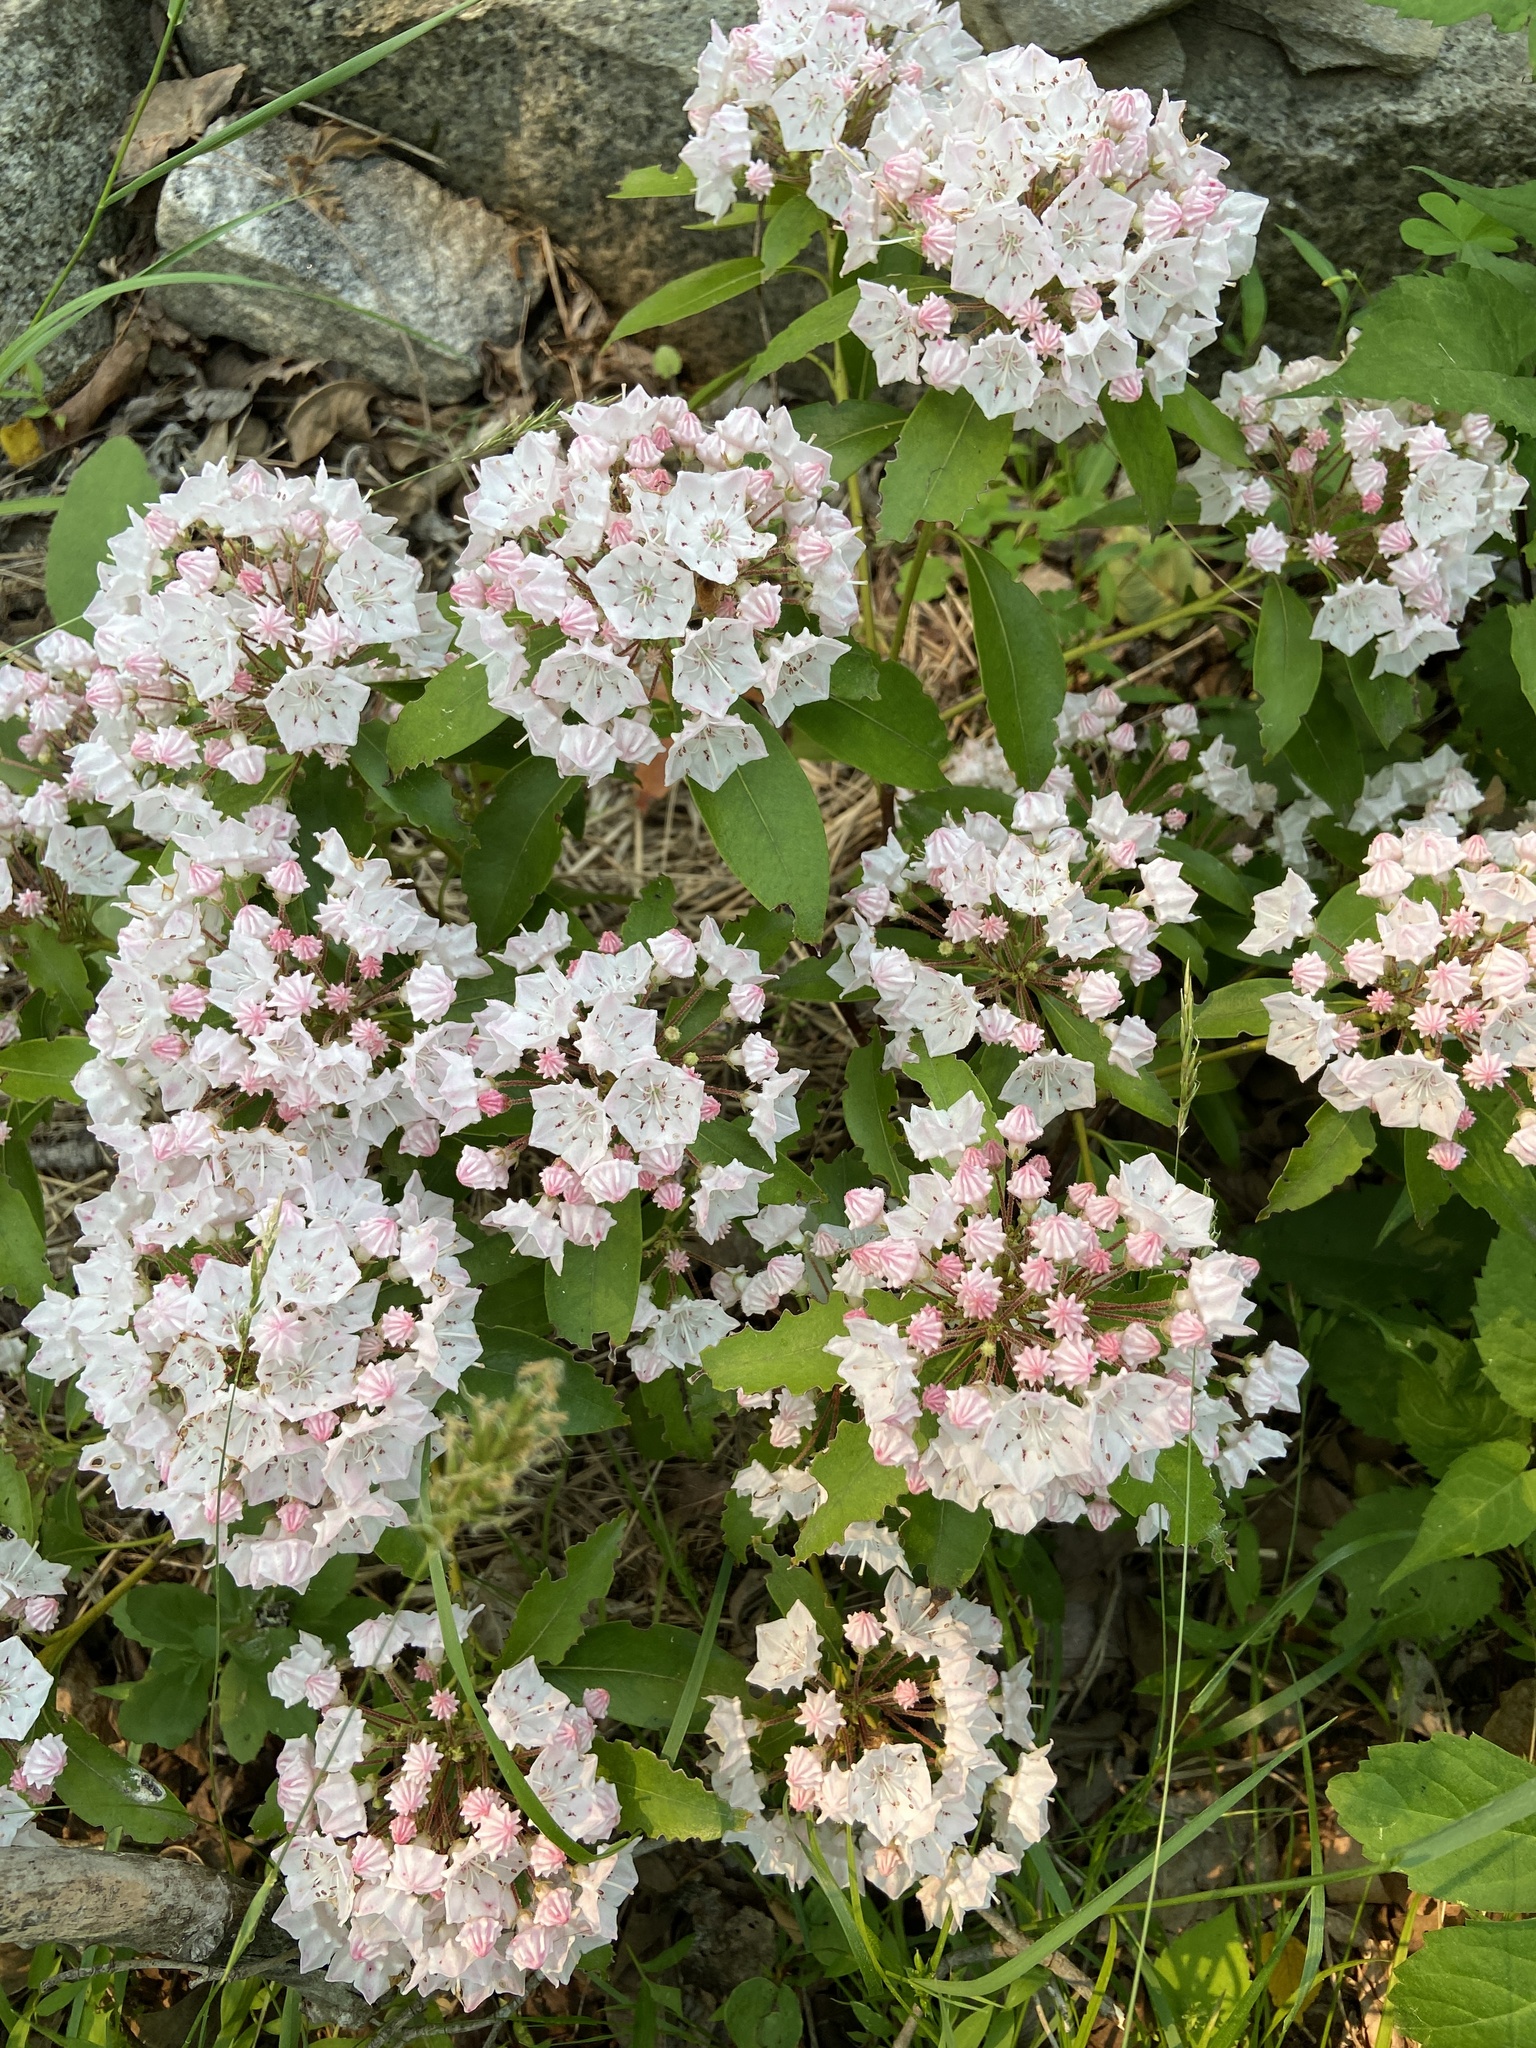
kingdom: Plantae
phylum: Tracheophyta
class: Magnoliopsida
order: Ericales
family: Ericaceae
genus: Kalmia
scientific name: Kalmia latifolia
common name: Mountain-laurel
